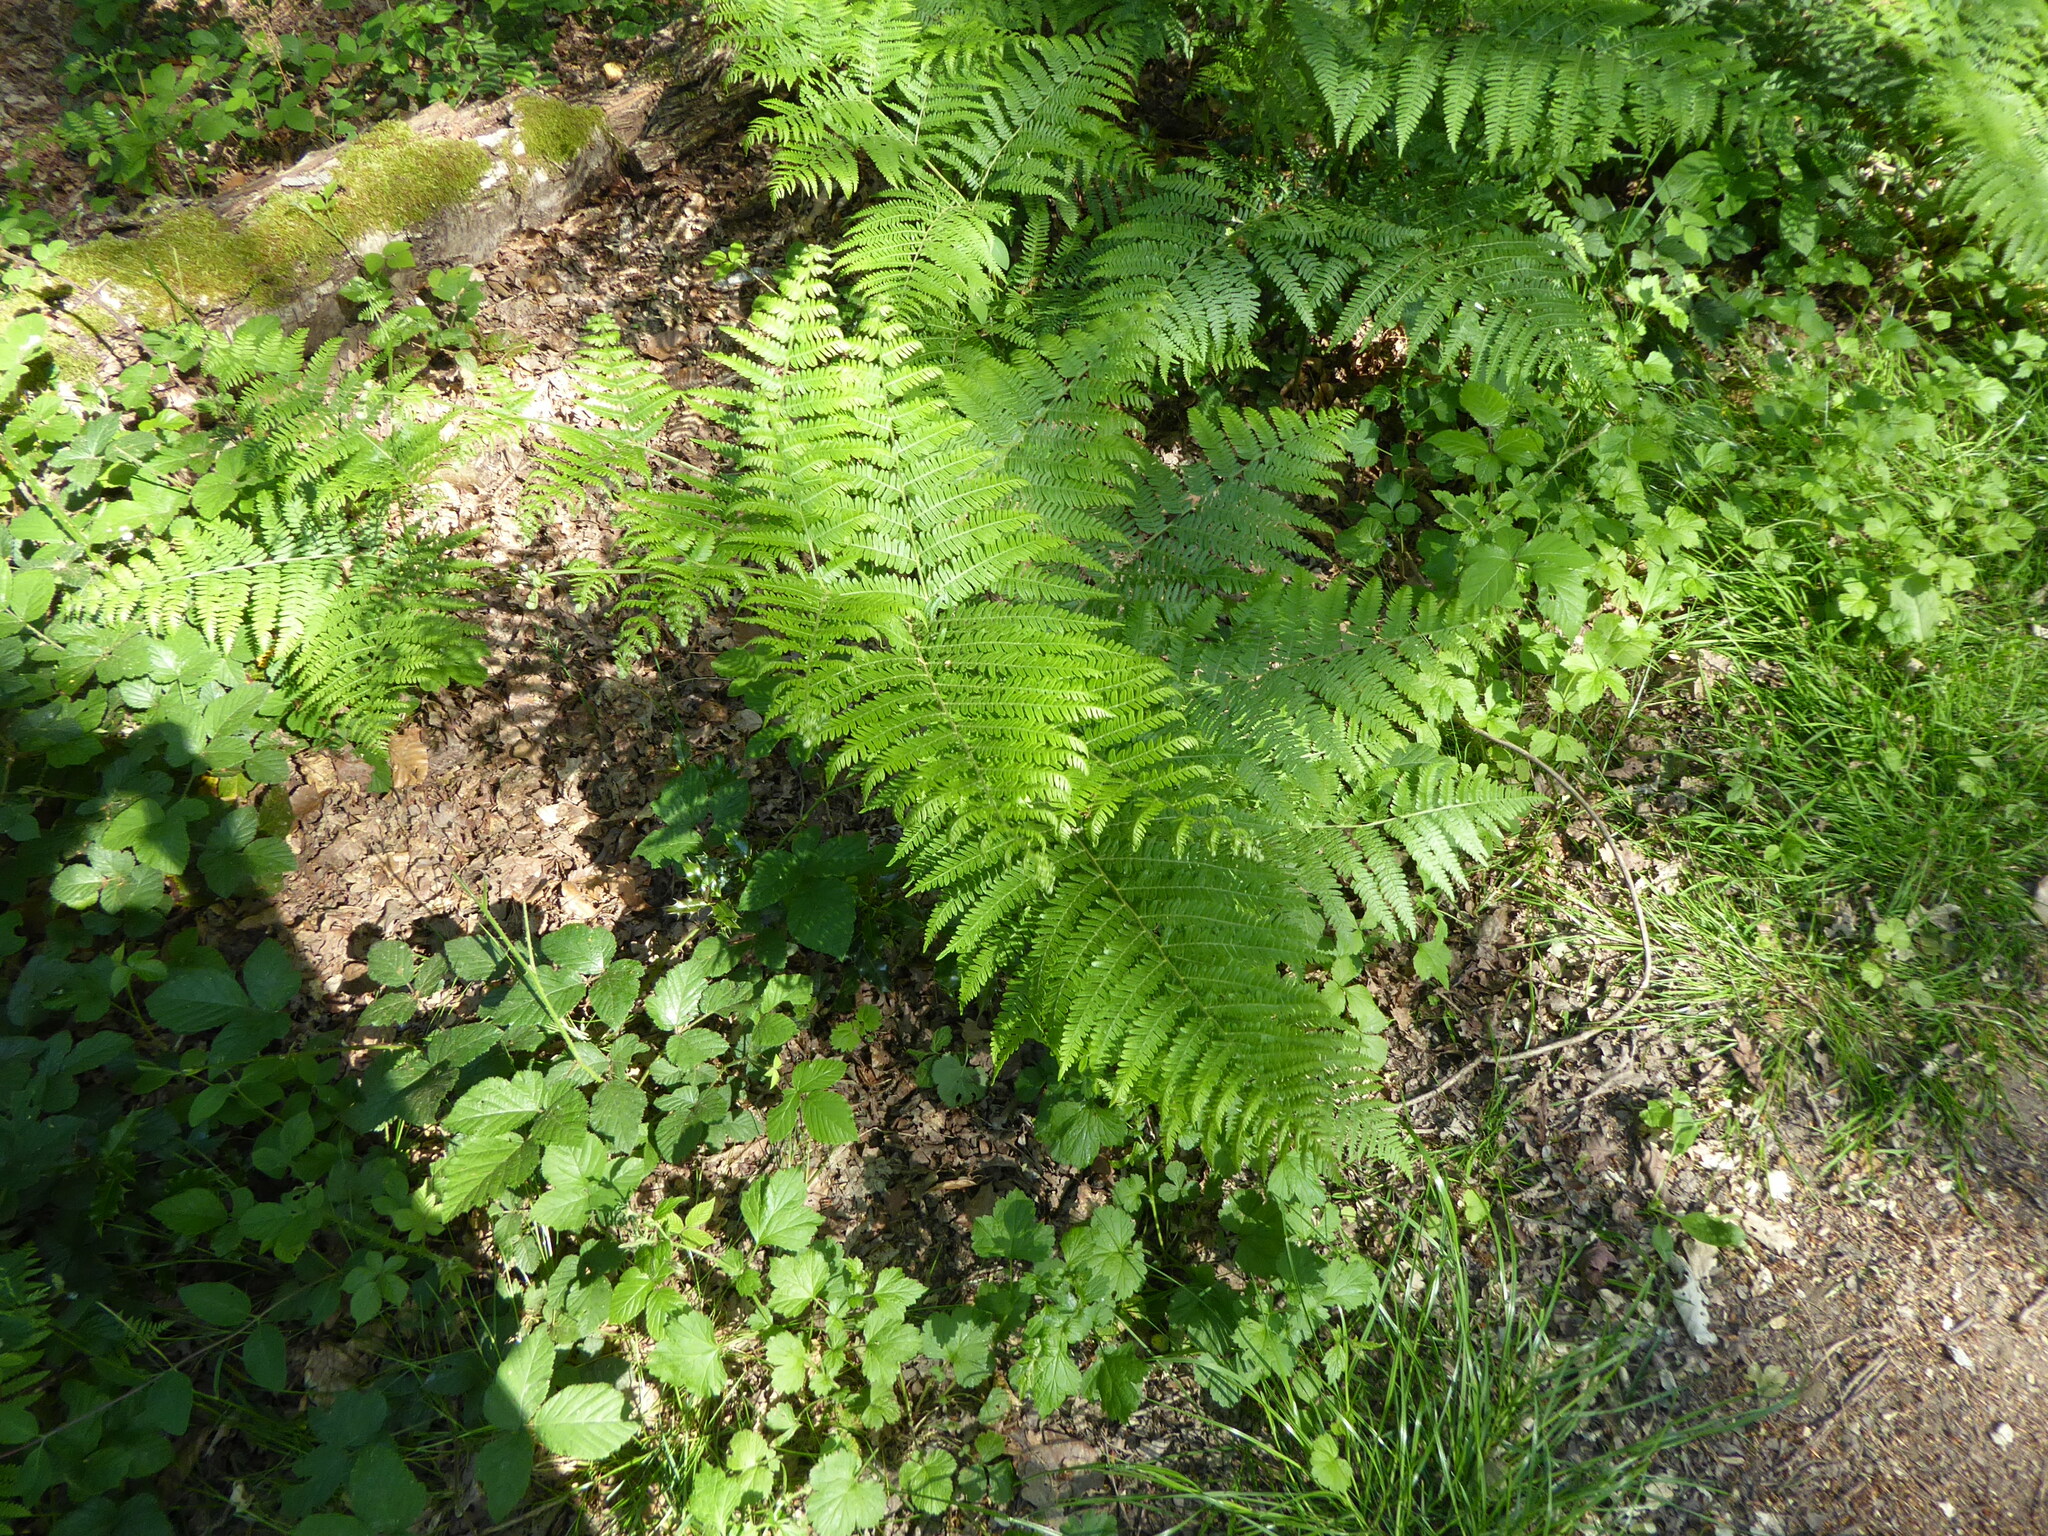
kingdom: Plantae
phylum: Tracheophyta
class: Polypodiopsida
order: Polypodiales
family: Dennstaedtiaceae
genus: Pteridium
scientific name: Pteridium aquilinum
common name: Bracken
